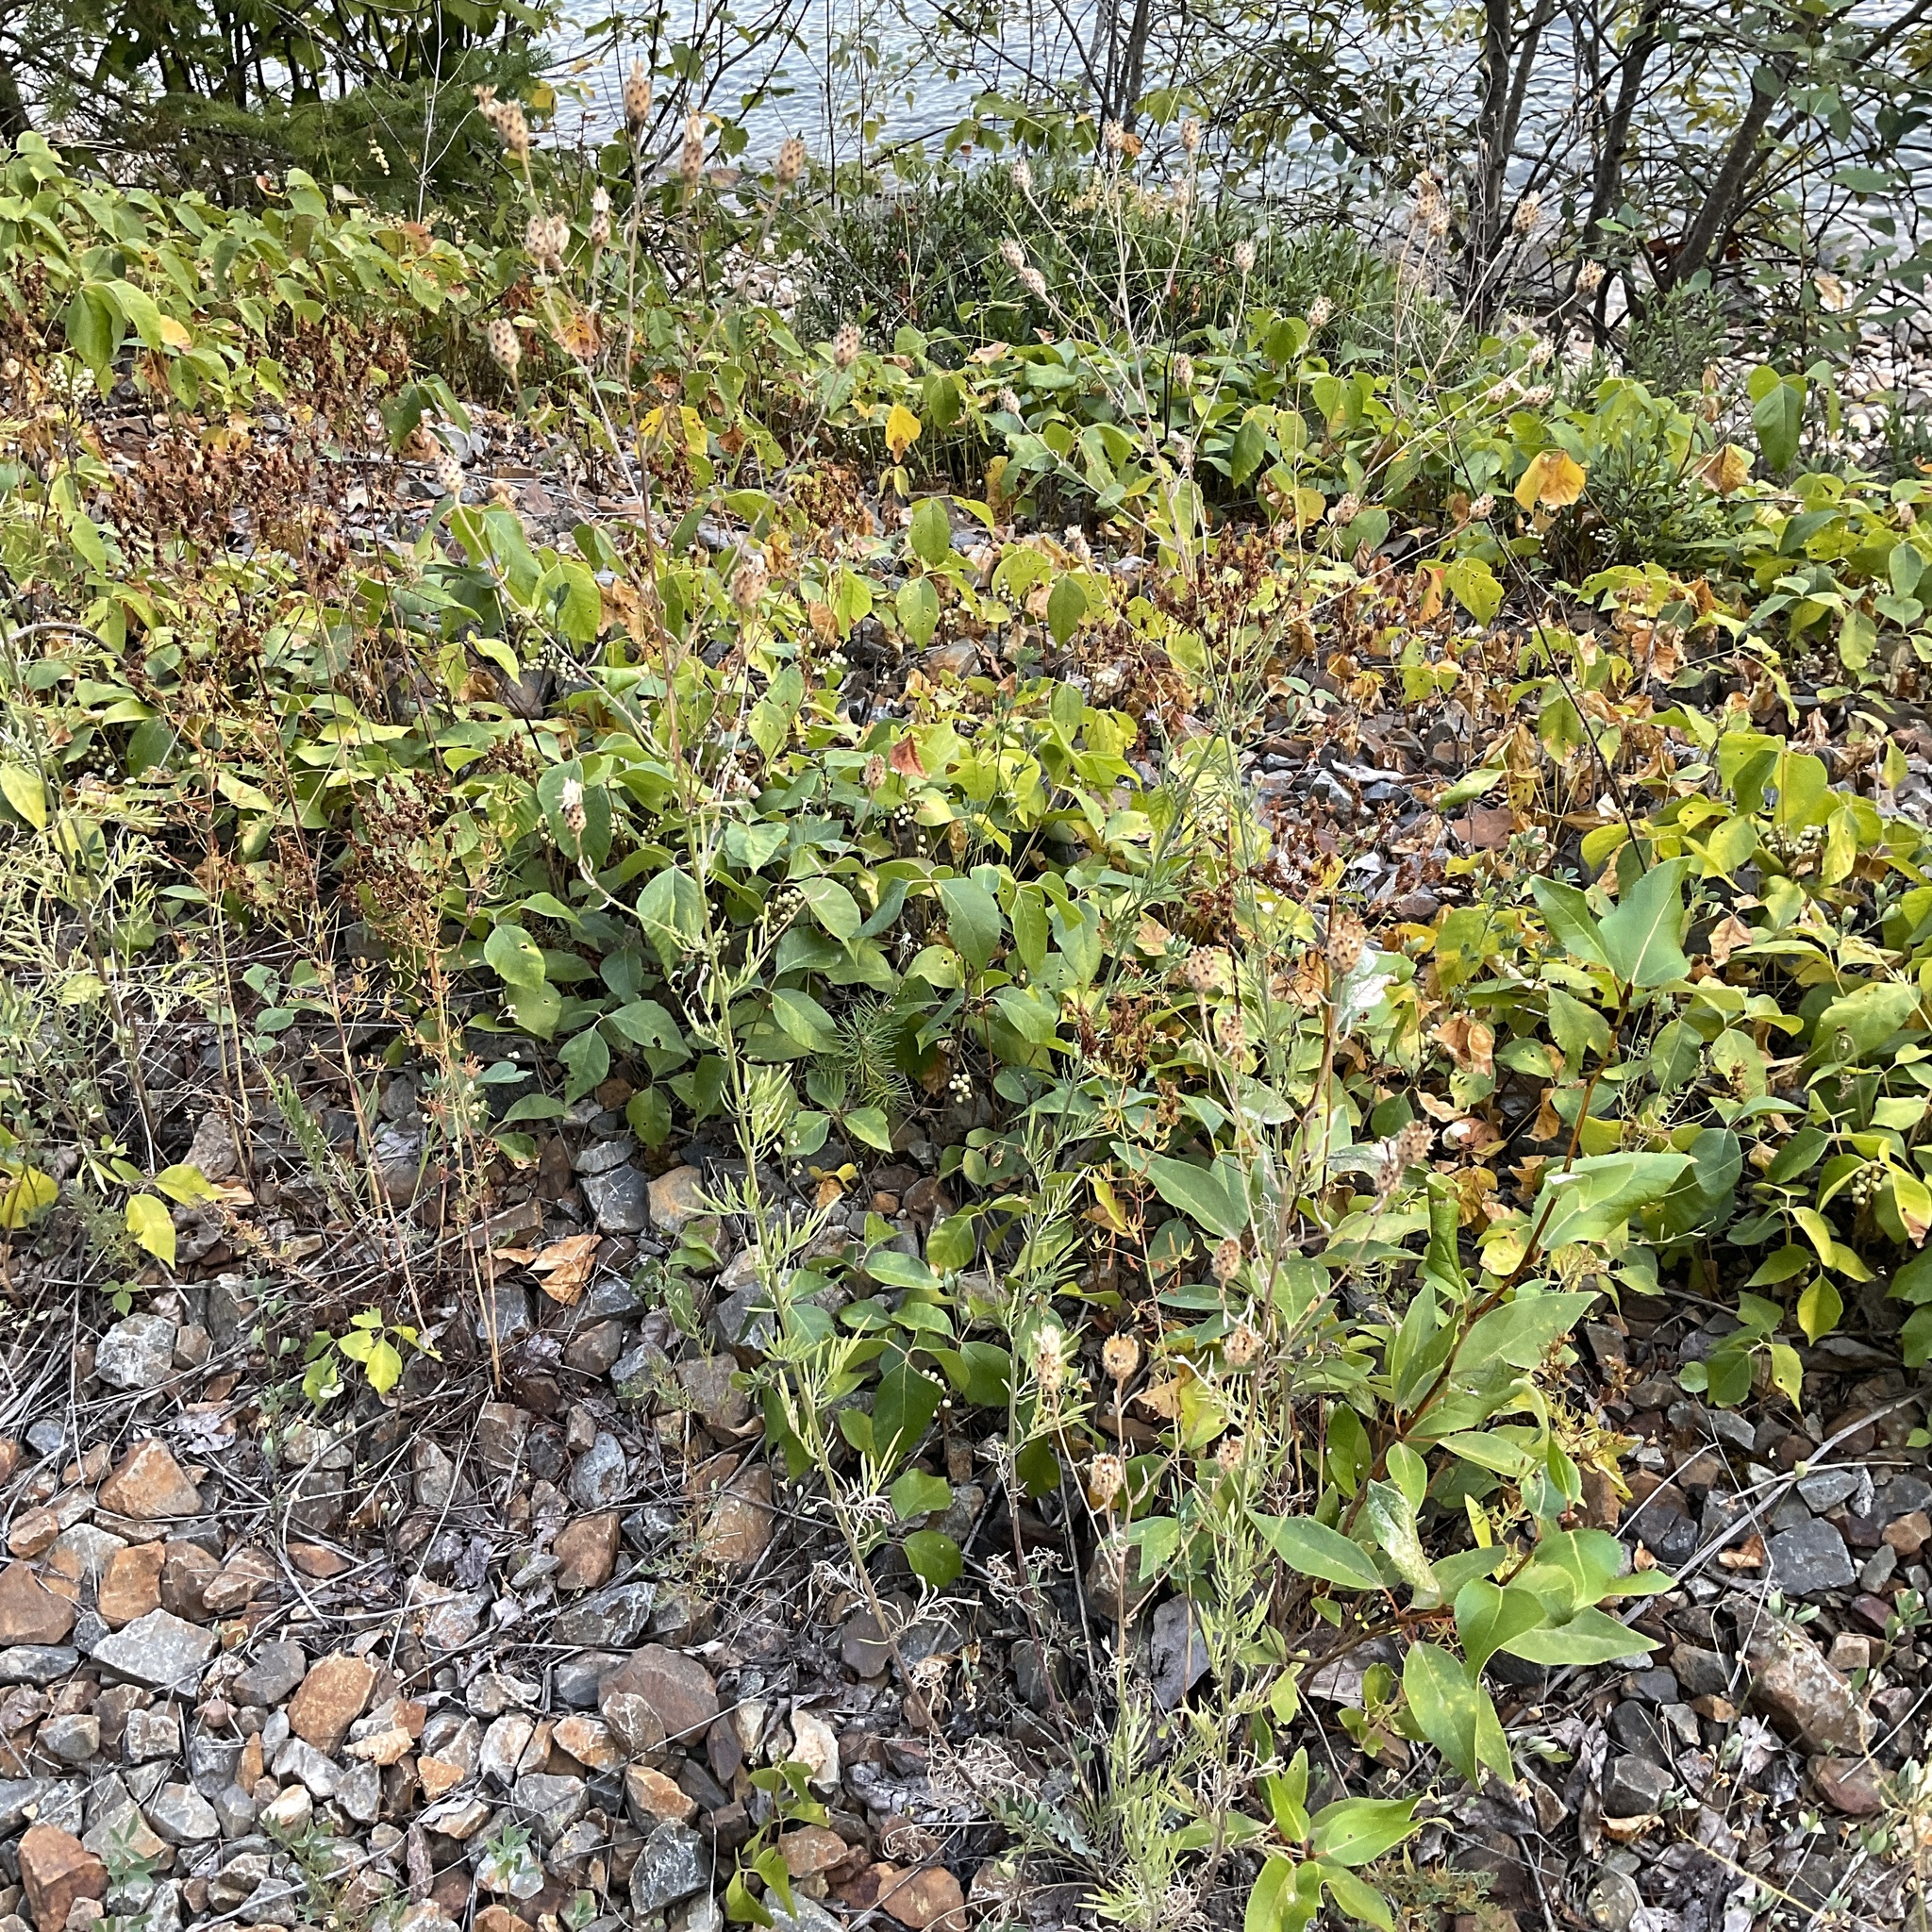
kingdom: Plantae
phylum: Tracheophyta
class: Magnoliopsida
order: Asterales
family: Asteraceae
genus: Centaurea
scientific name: Centaurea stoebe
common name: Spotted knapweed
